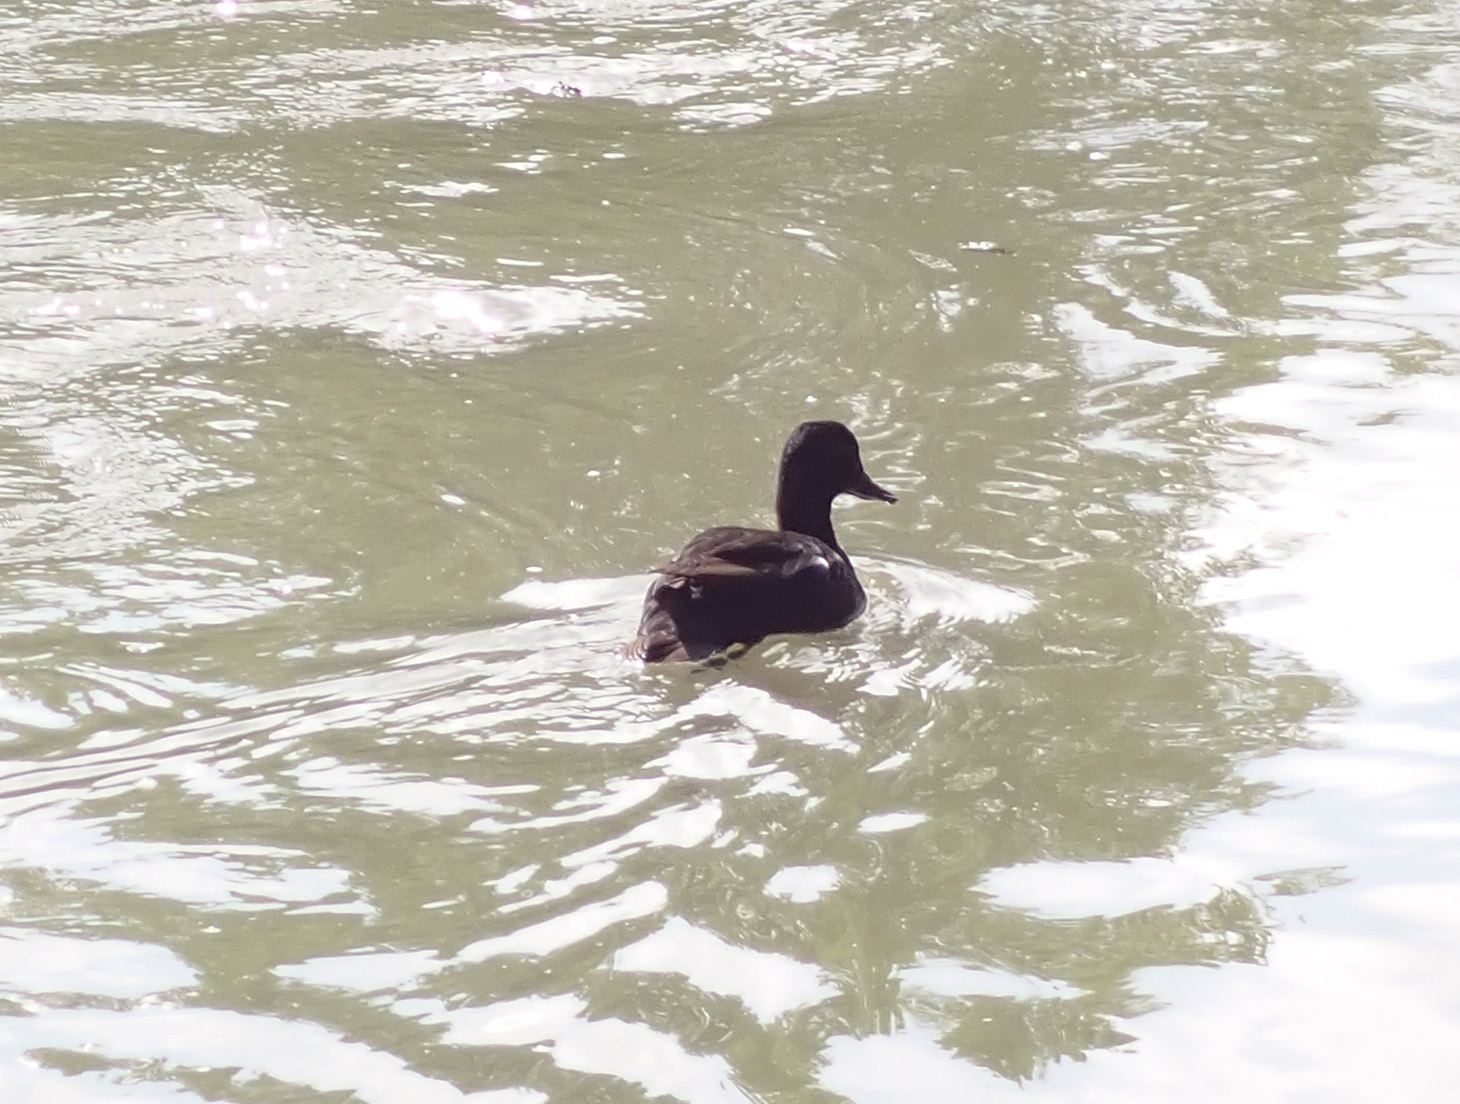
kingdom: Animalia
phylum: Chordata
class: Aves
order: Anseriformes
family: Anatidae
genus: Anas
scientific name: Anas platyrhynchos
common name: Mallard
